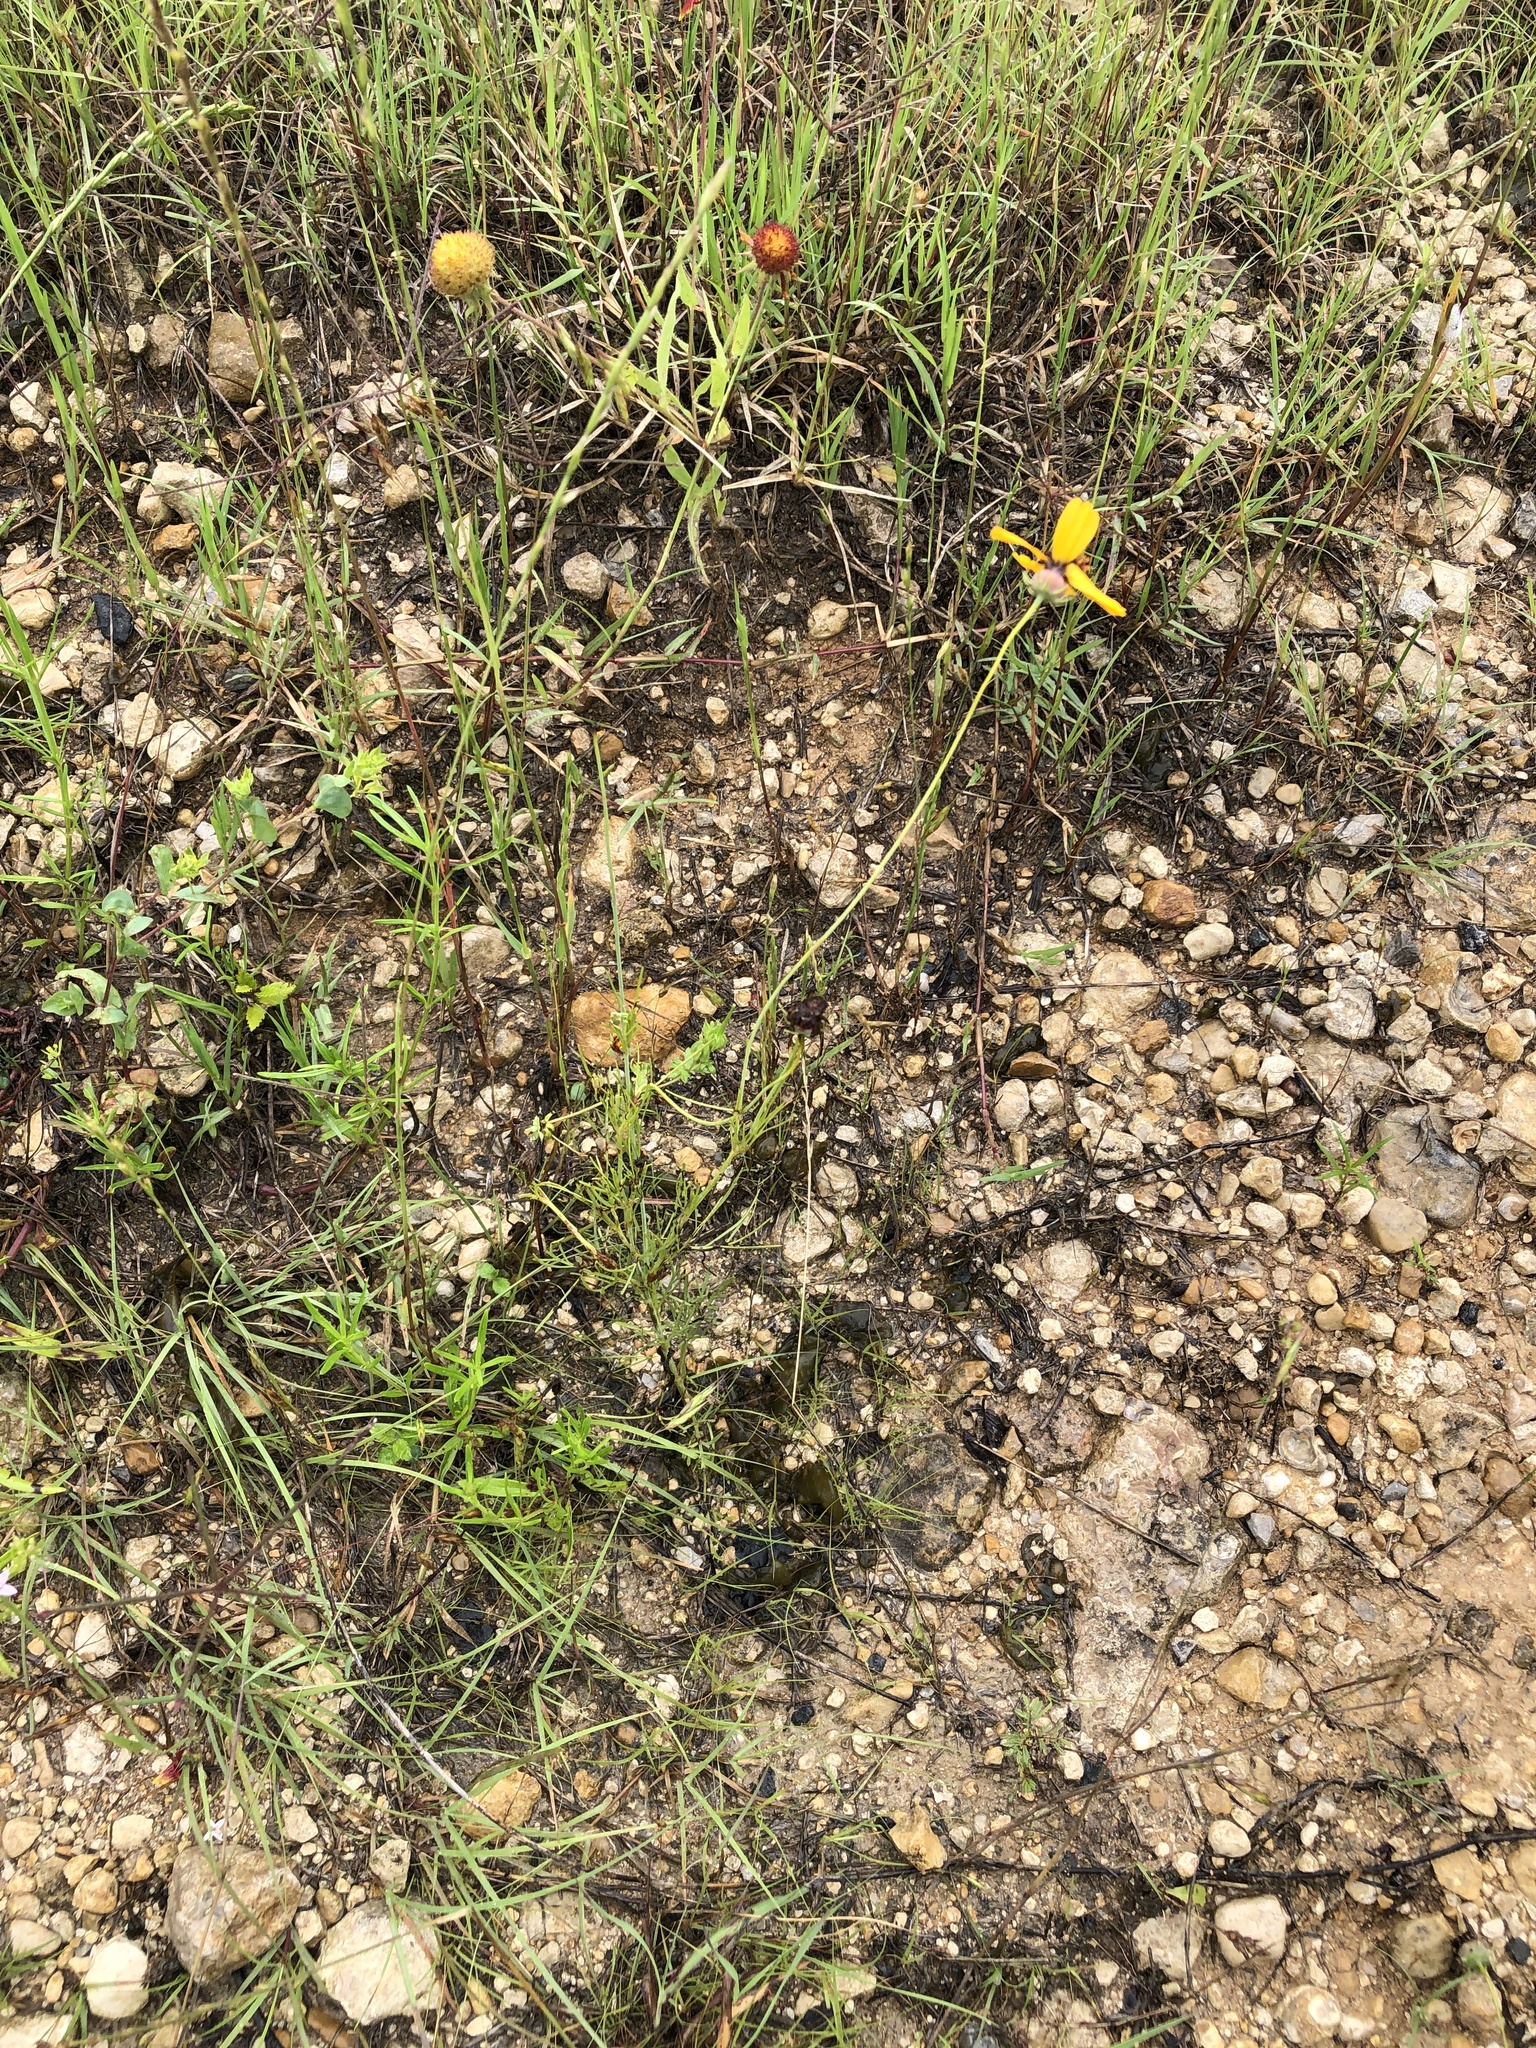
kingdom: Plantae
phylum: Tracheophyta
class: Magnoliopsida
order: Asterales
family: Asteraceae
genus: Thelesperma
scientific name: Thelesperma filifolium
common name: Stiff greenthread
